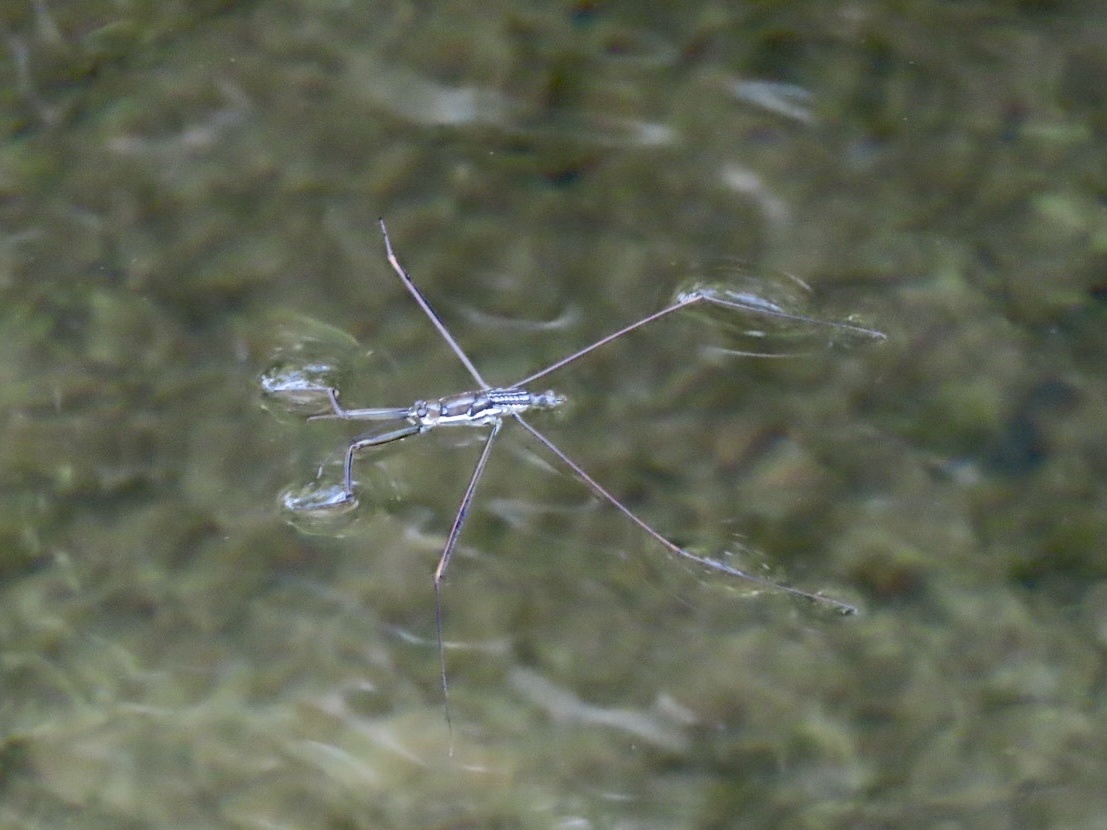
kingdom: Animalia
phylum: Arthropoda
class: Insecta
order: Hemiptera
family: Gerridae
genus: Ptilomera
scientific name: Ptilomera tigrina
